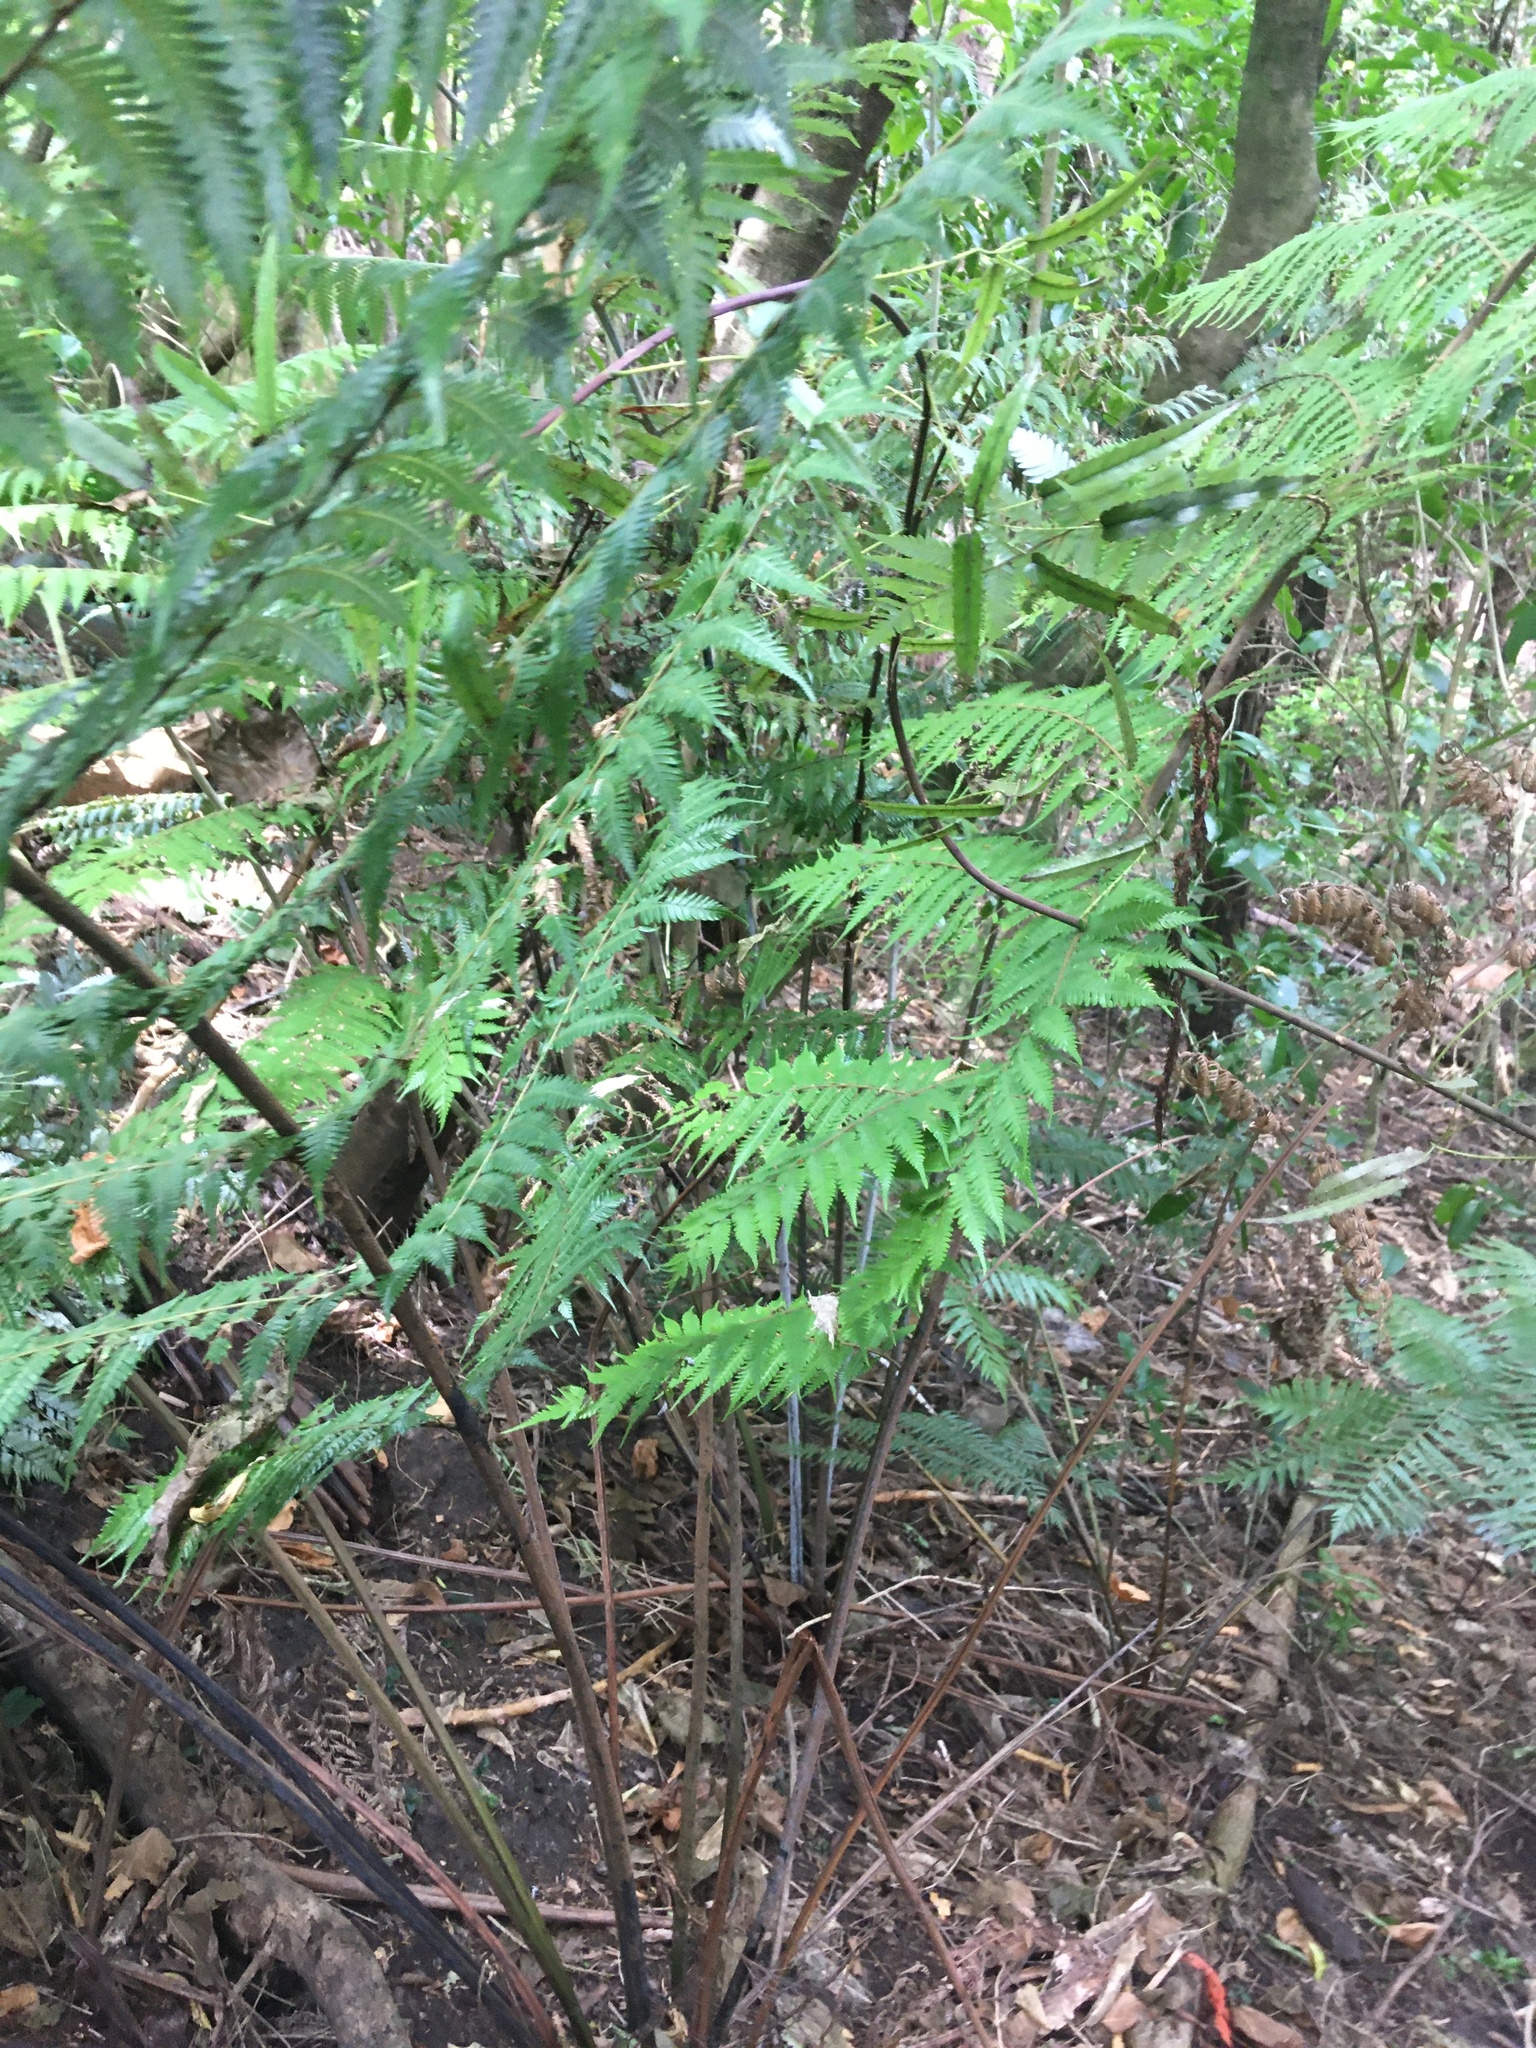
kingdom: Plantae
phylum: Tracheophyta
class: Polypodiopsida
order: Cyatheales
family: Cyatheaceae
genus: Alsophila
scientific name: Alsophila dealbata
